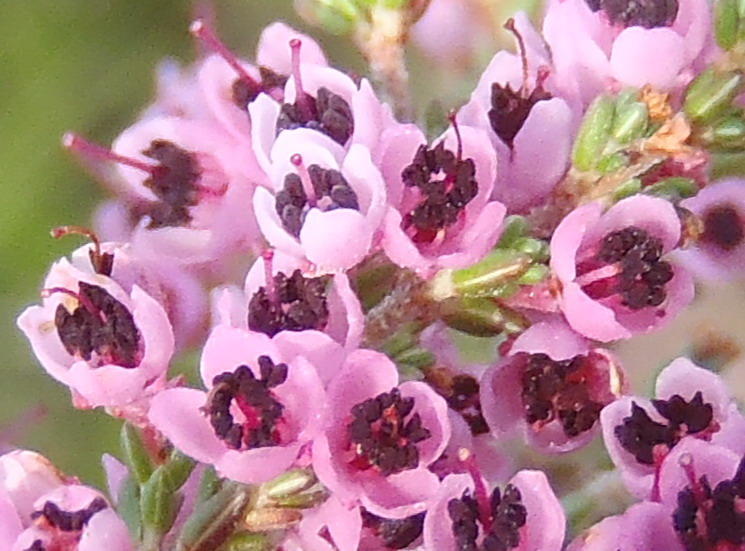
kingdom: Plantae
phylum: Tracheophyta
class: Magnoliopsida
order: Ericales
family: Ericaceae
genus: Erica
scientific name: Erica canaliculata
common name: Hairy grey heather
